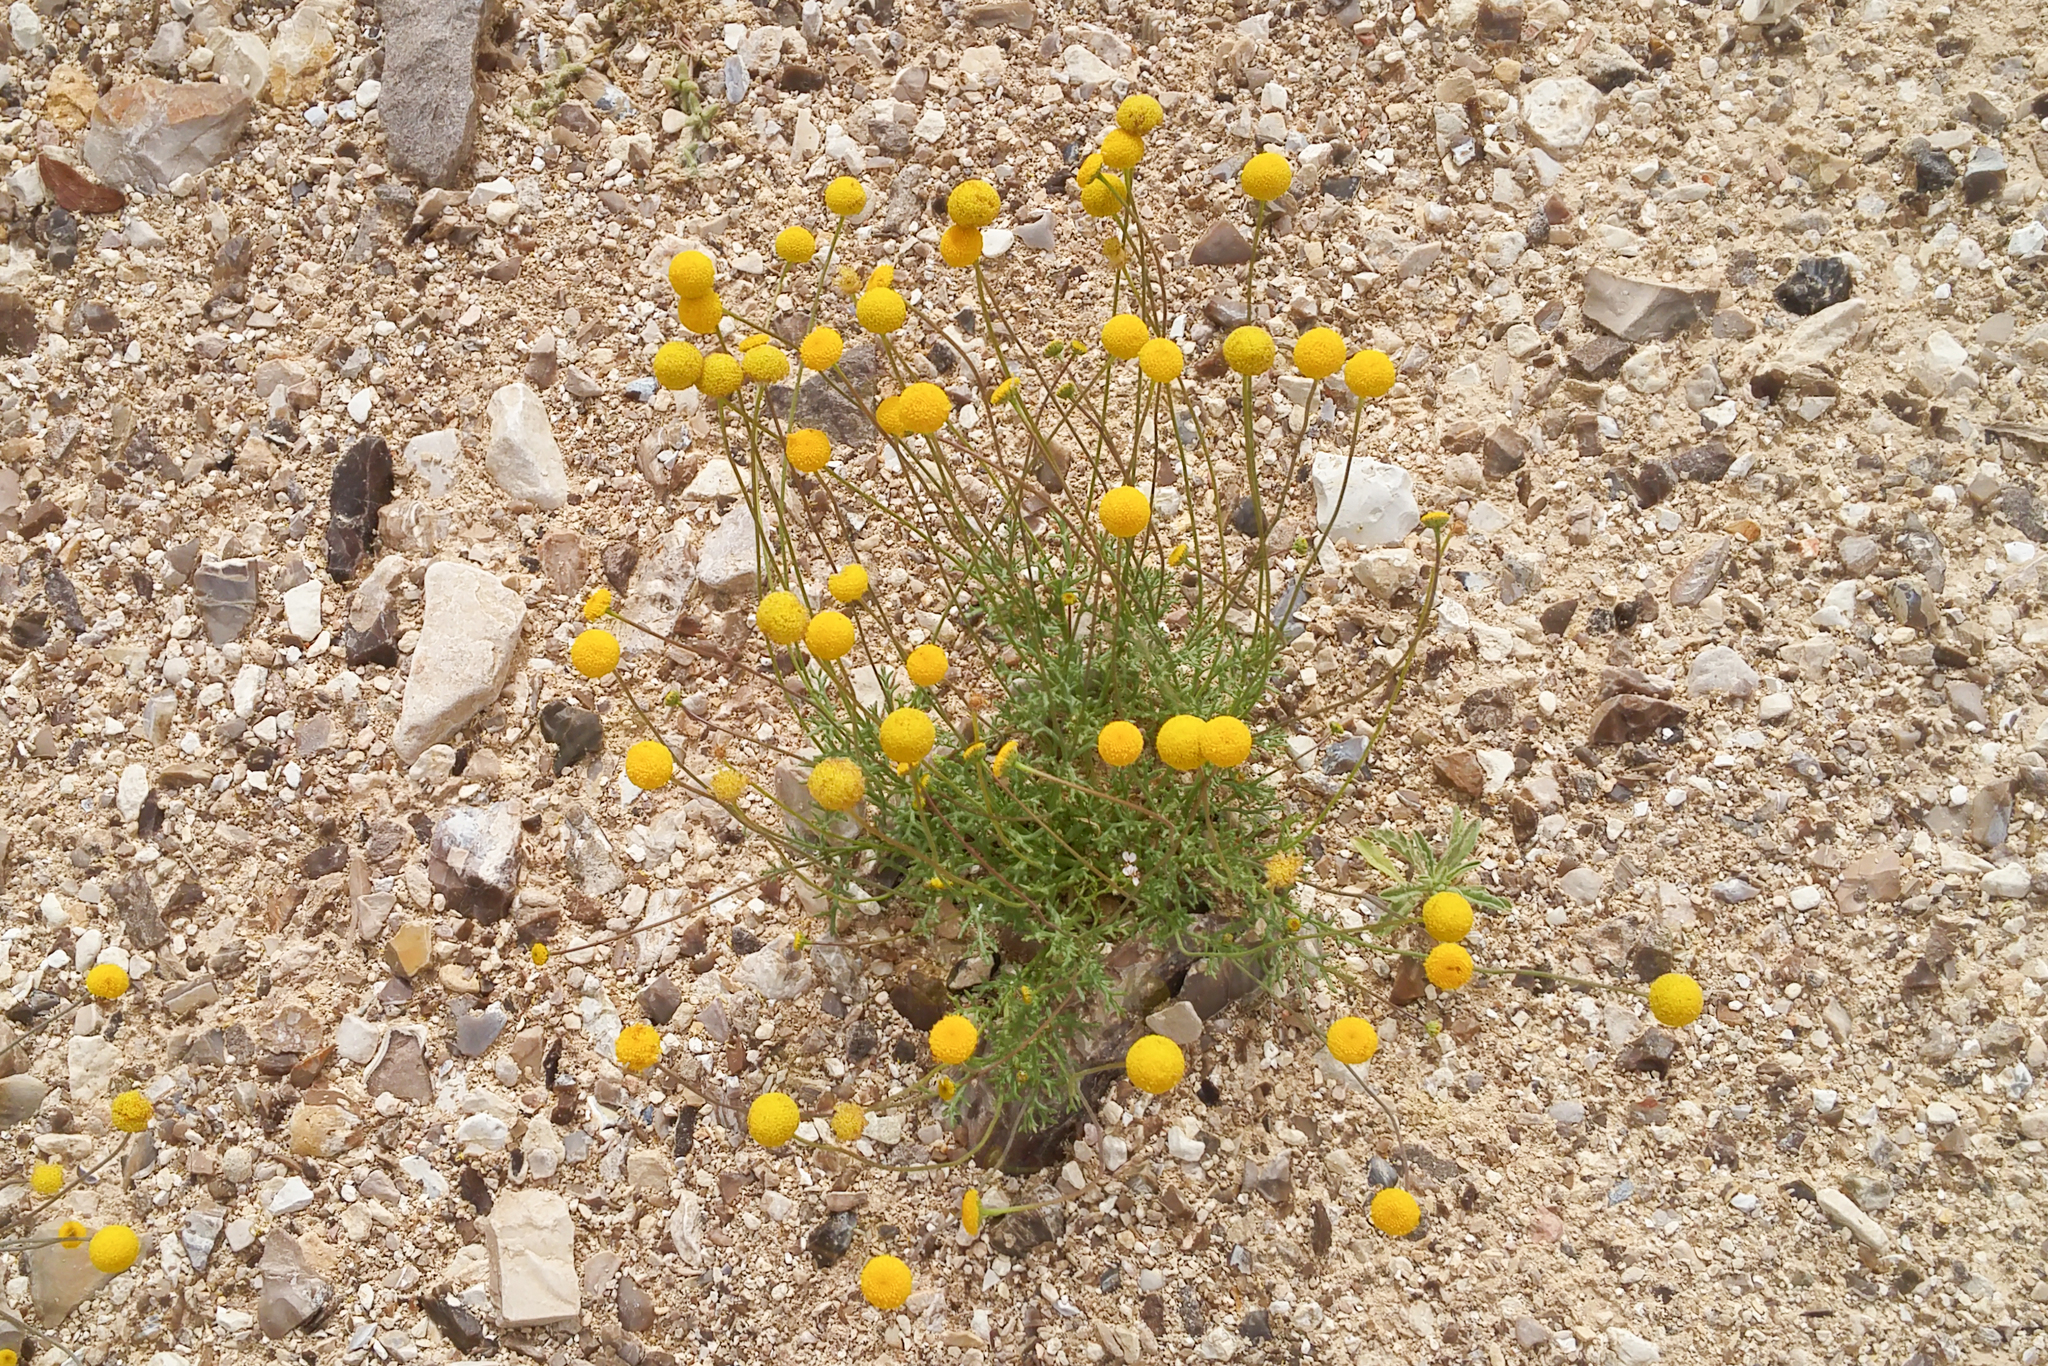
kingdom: Plantae
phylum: Tracheophyta
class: Magnoliopsida
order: Asterales
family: Asteraceae
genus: Otoglyphis
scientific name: Otoglyphis factorovskyi
